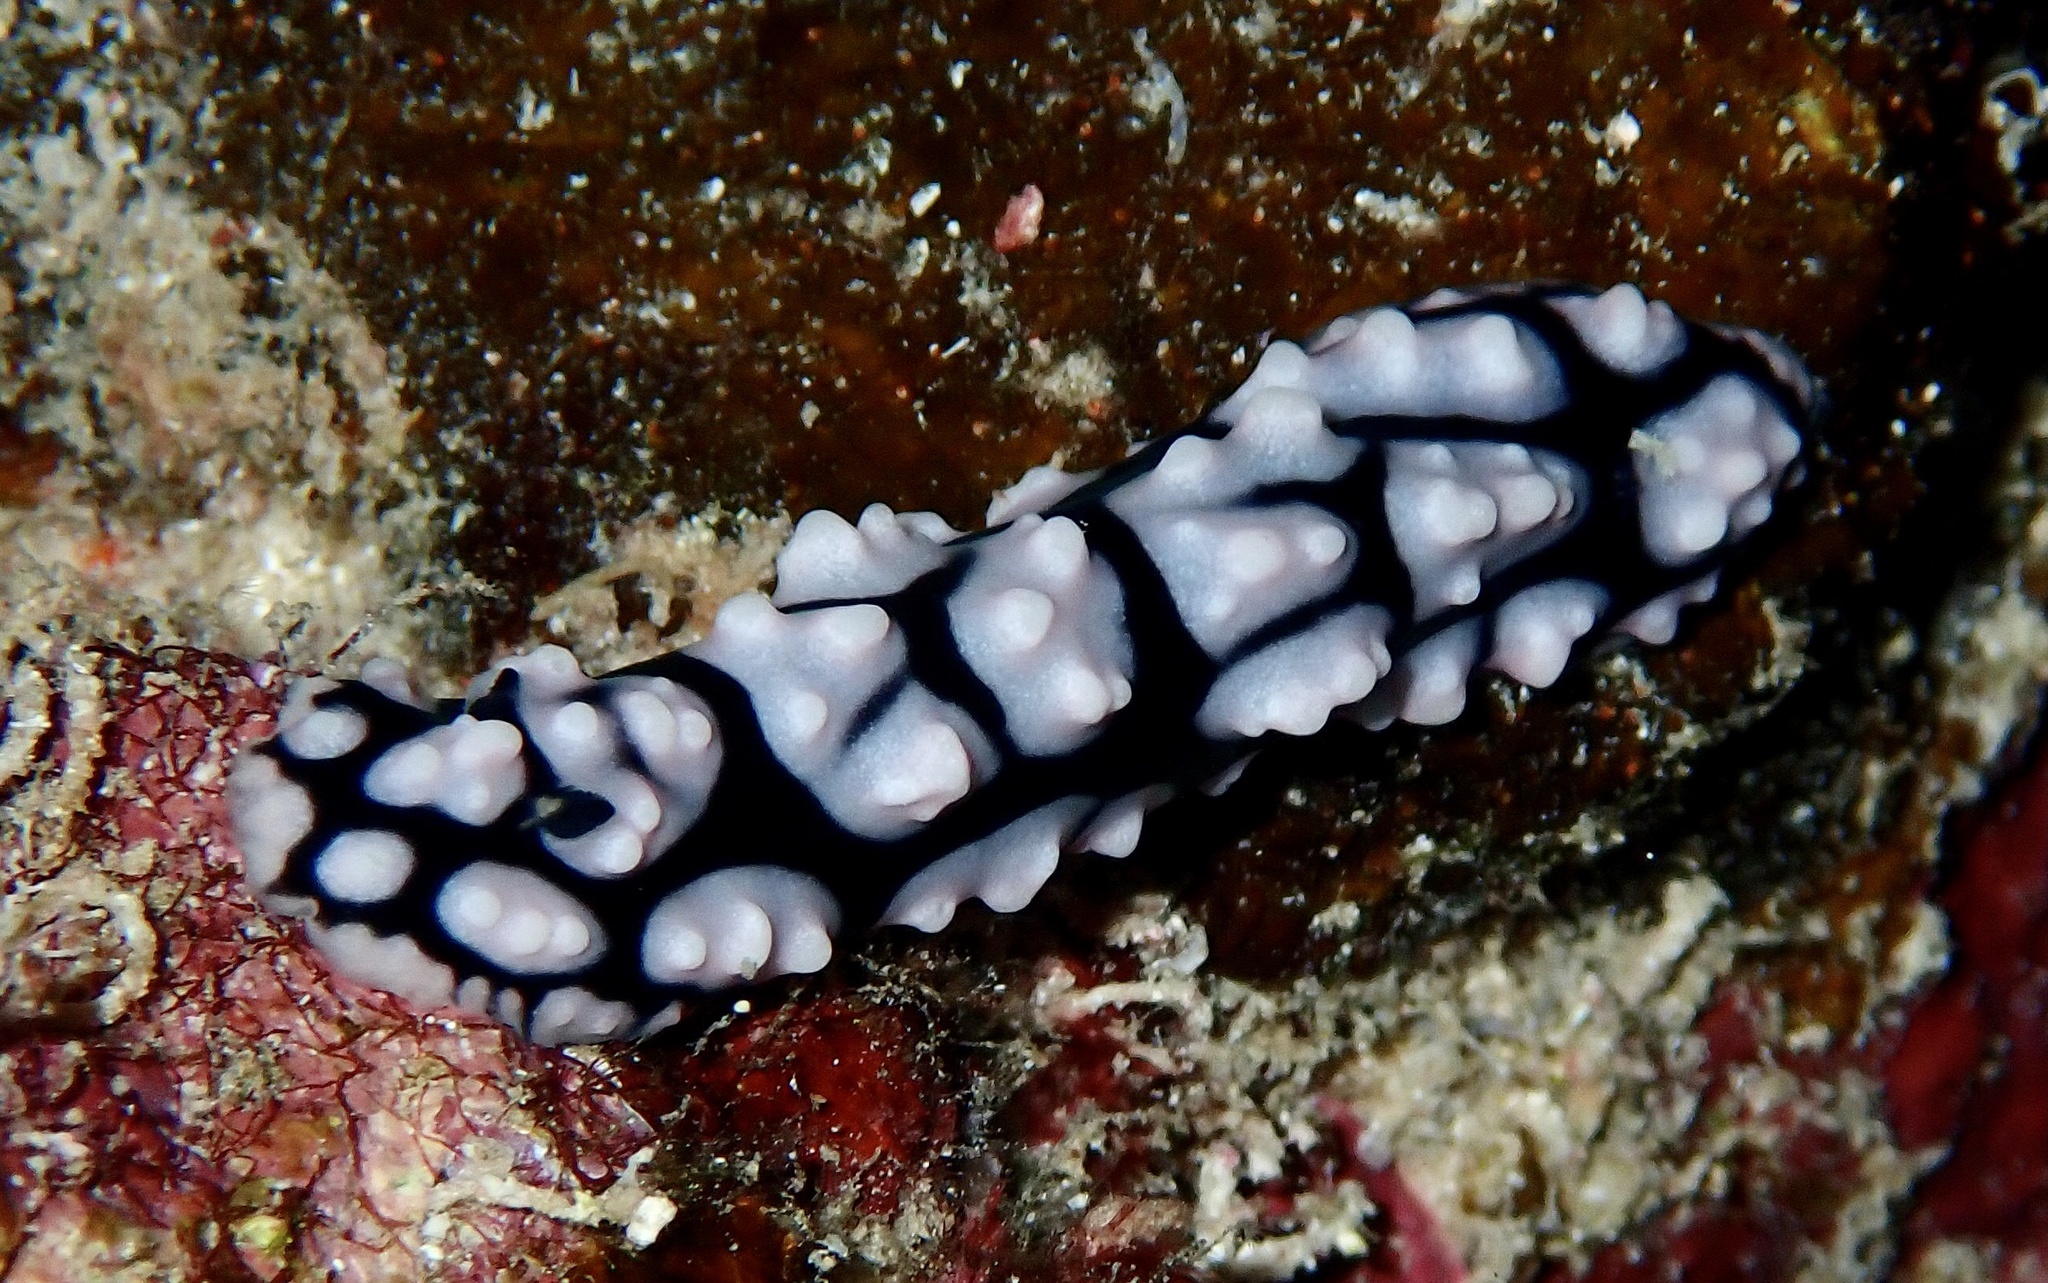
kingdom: Animalia
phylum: Mollusca
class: Gastropoda
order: Nudibranchia
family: Phyllidiidae
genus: Phyllidiella
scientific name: Phyllidiella pustulosa
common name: Pustular phyllidia
